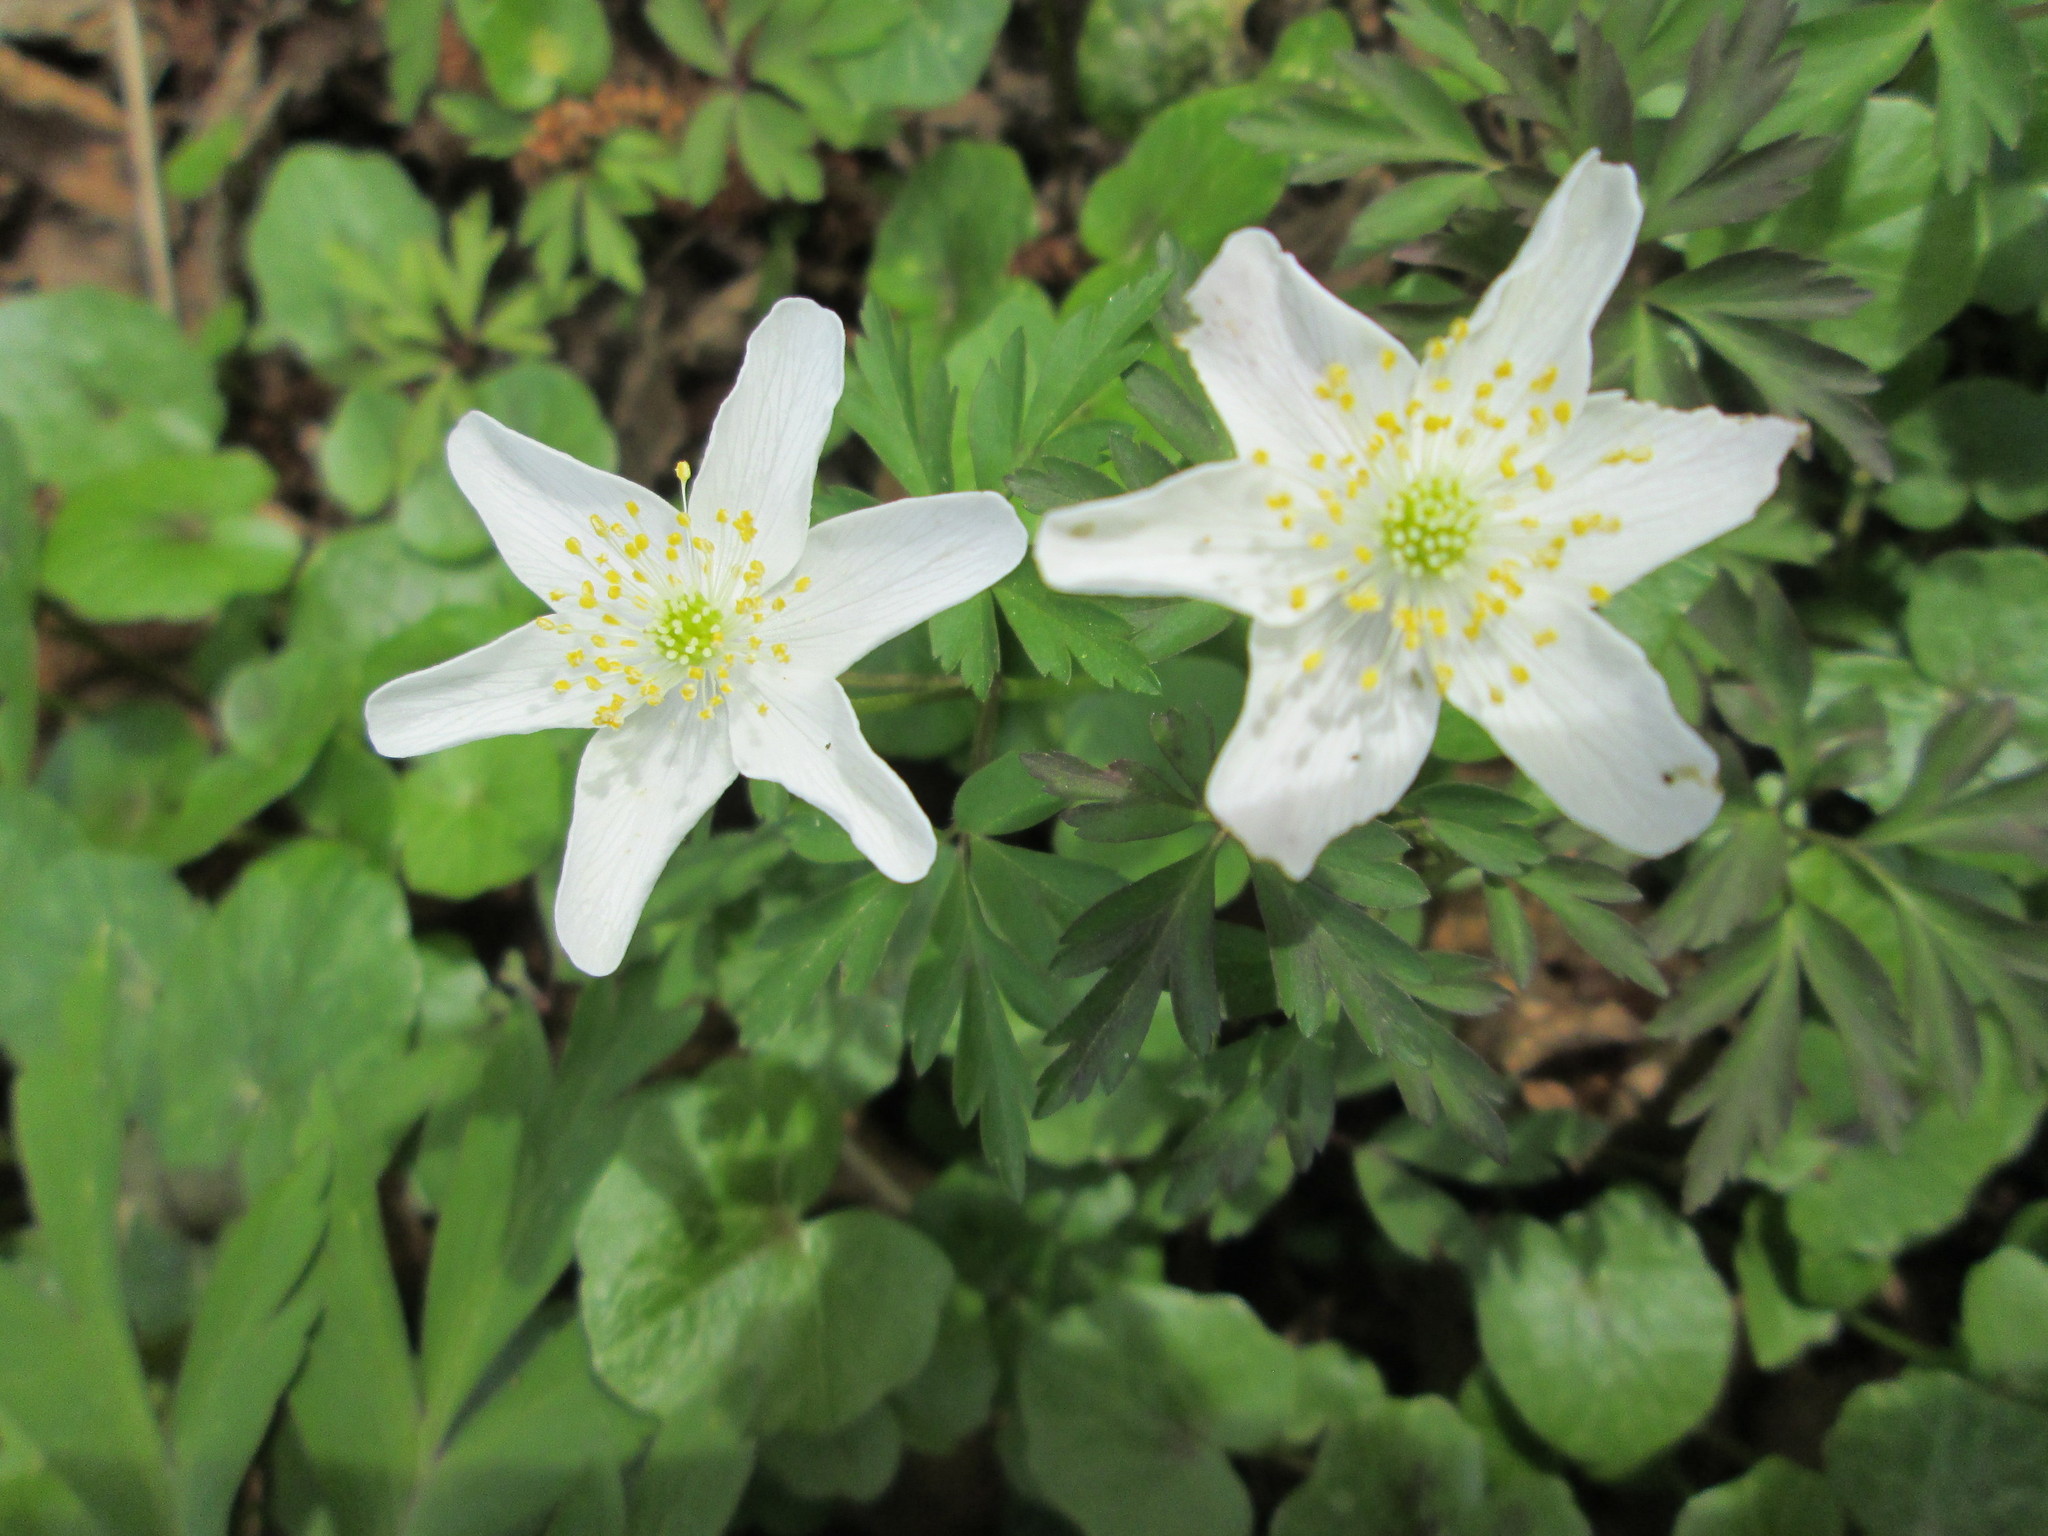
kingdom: Plantae
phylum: Tracheophyta
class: Magnoliopsida
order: Ranunculales
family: Ranunculaceae
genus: Anemone
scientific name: Anemone nemorosa
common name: Wood anemone
